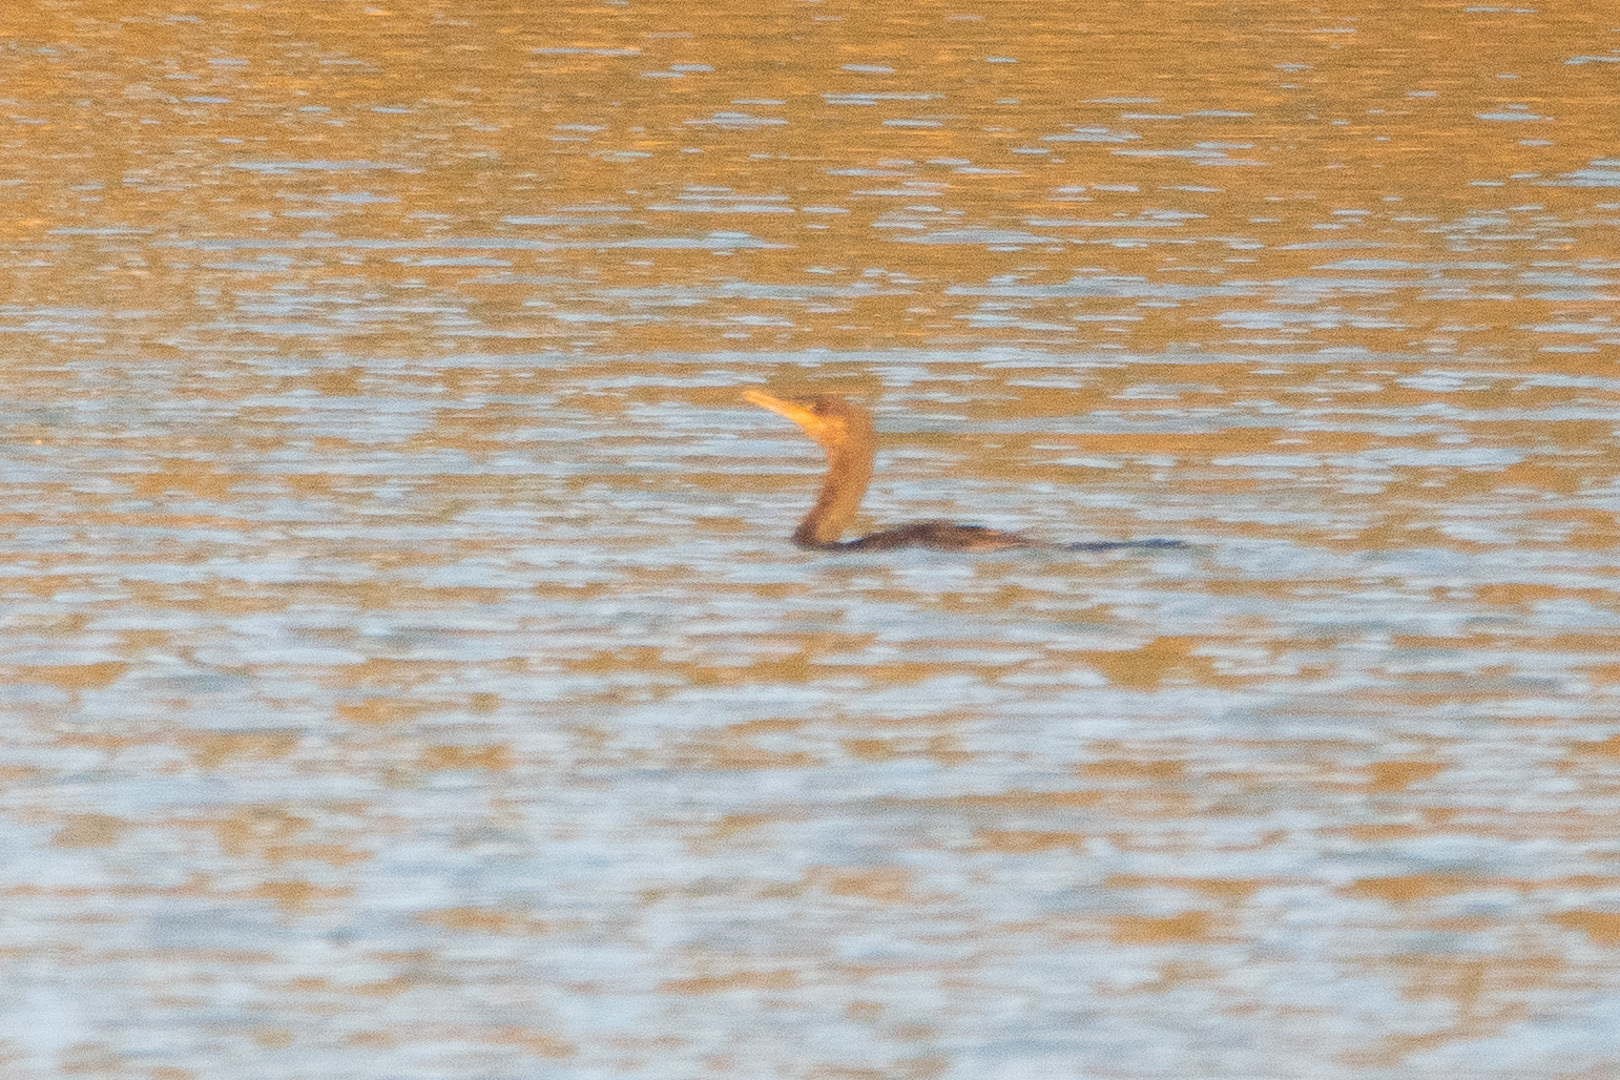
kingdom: Animalia
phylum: Chordata
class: Aves
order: Suliformes
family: Phalacrocoracidae
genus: Phalacrocorax
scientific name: Phalacrocorax brasilianus
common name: Neotropic cormorant
